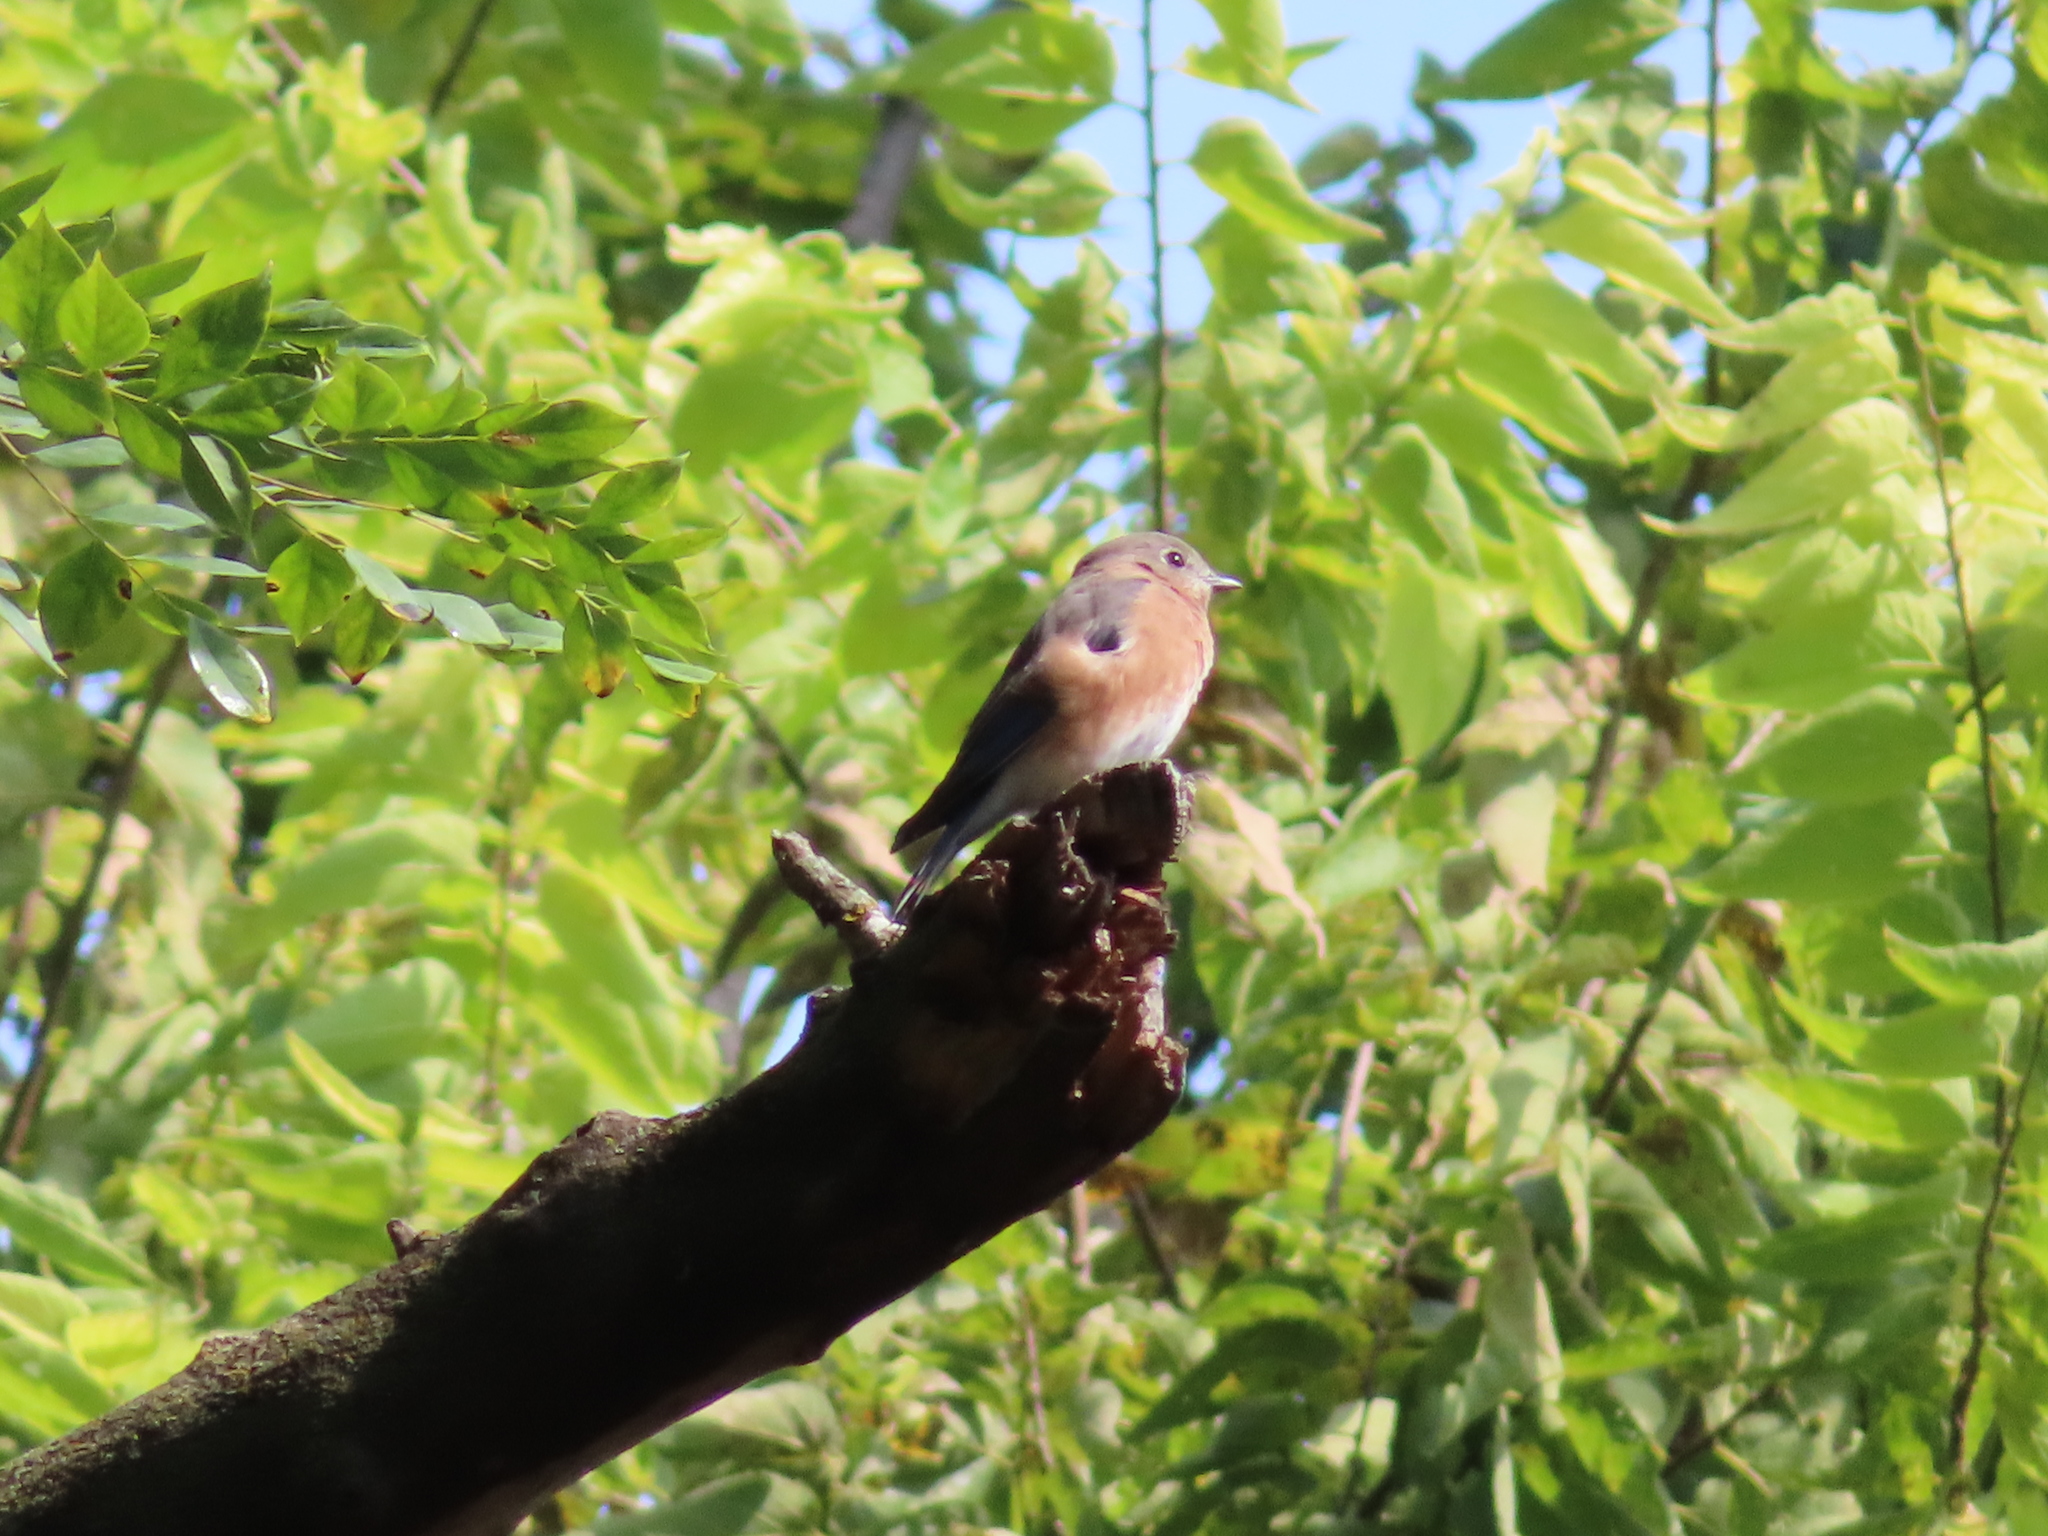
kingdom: Animalia
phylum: Chordata
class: Aves
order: Passeriformes
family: Turdidae
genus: Sialia
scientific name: Sialia sialis
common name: Eastern bluebird
